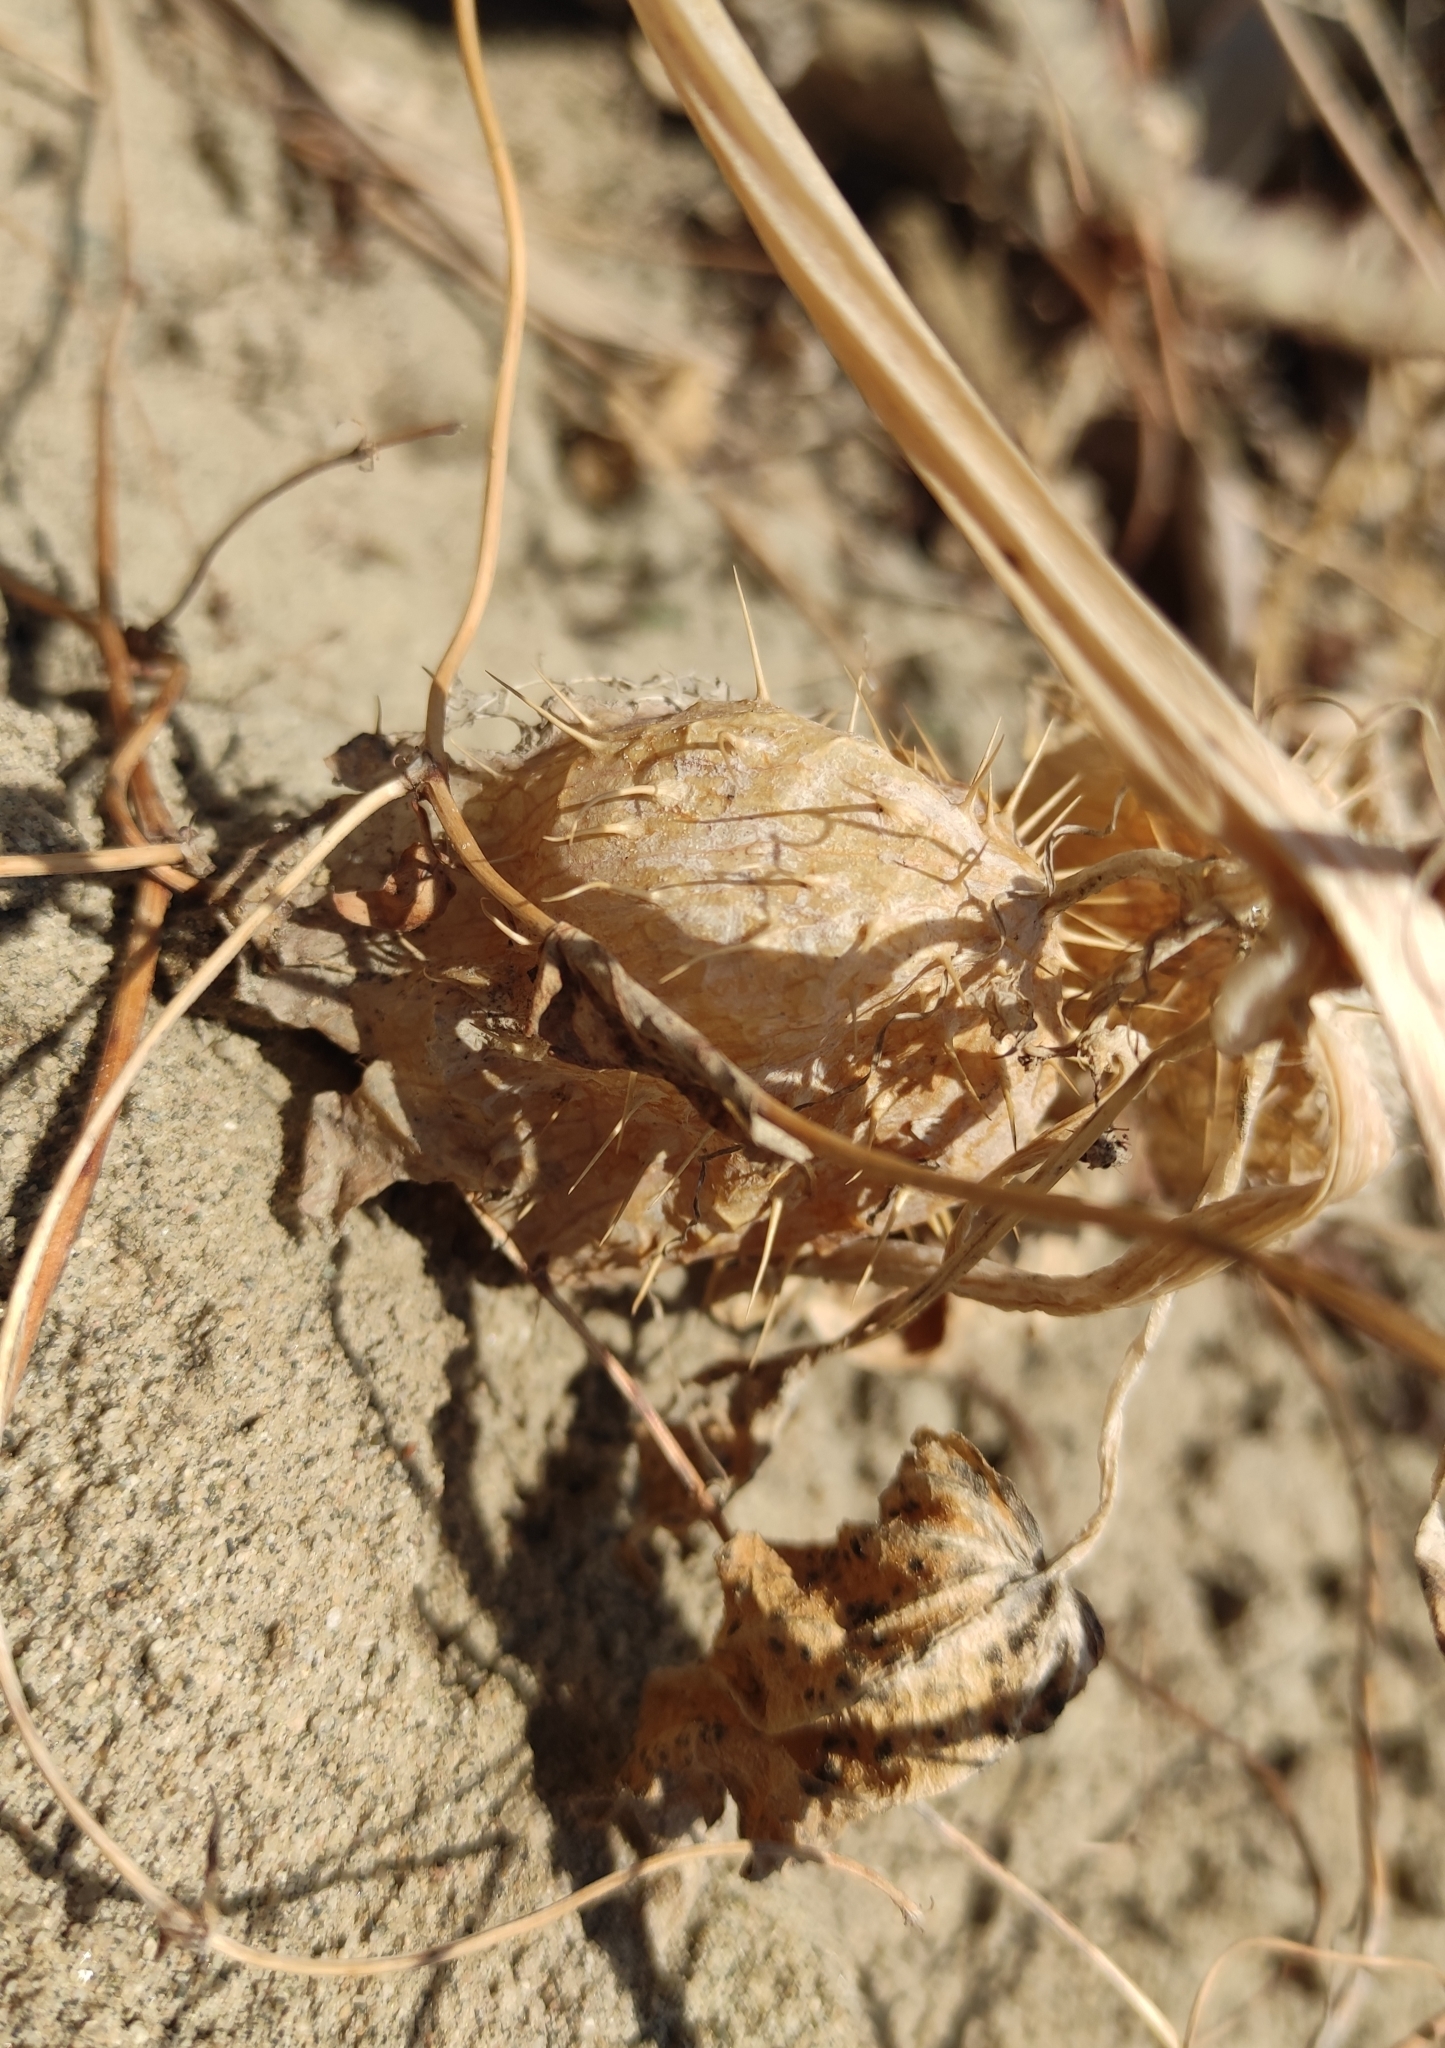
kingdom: Plantae
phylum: Tracheophyta
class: Magnoliopsida
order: Cucurbitales
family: Cucurbitaceae
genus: Echinocystis
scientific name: Echinocystis lobata
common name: Wild cucumber
